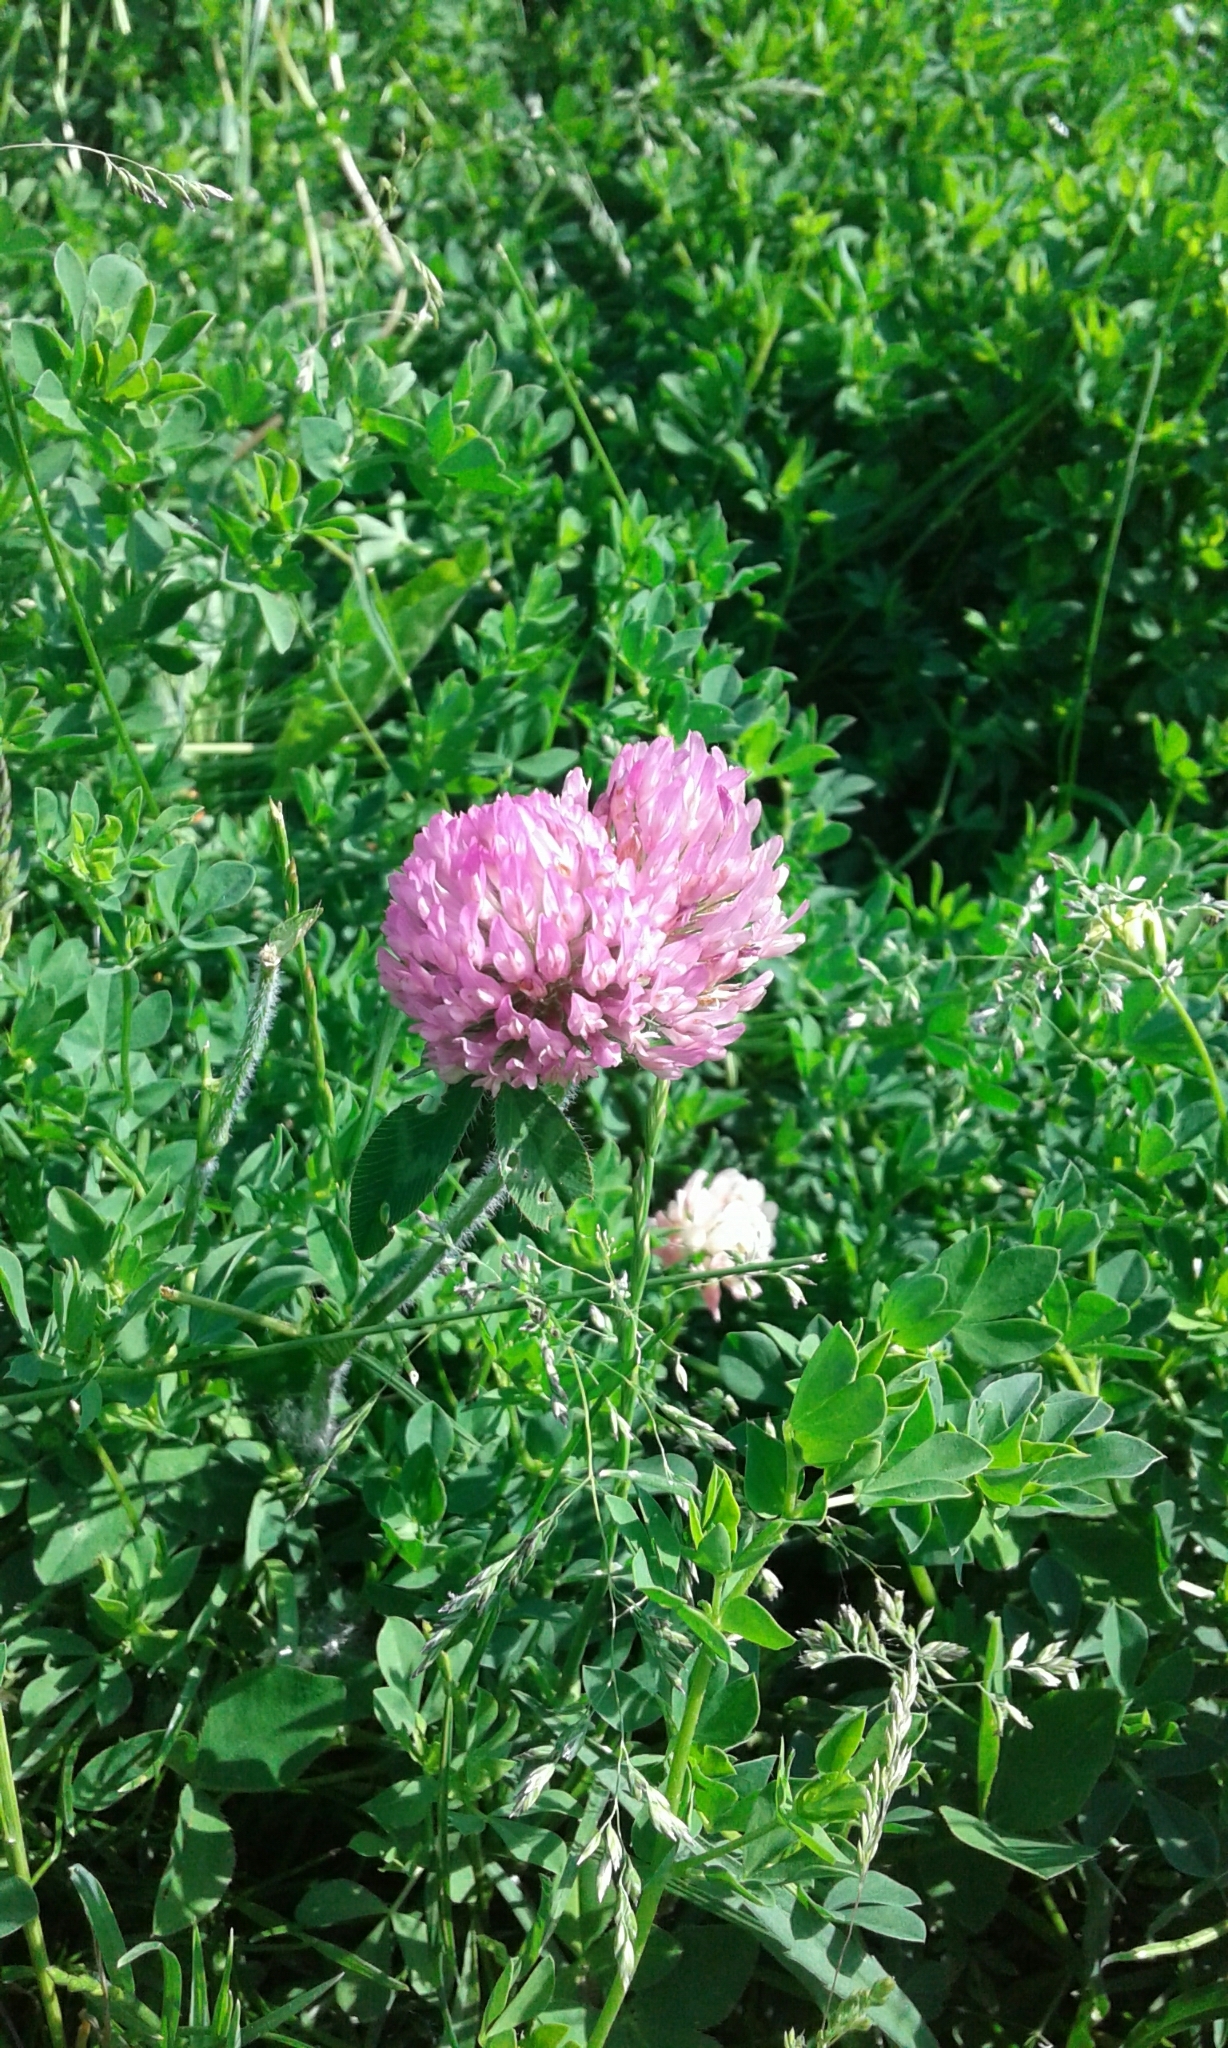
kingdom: Plantae
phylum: Tracheophyta
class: Magnoliopsida
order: Fabales
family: Fabaceae
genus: Trifolium
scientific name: Trifolium pratense
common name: Red clover
